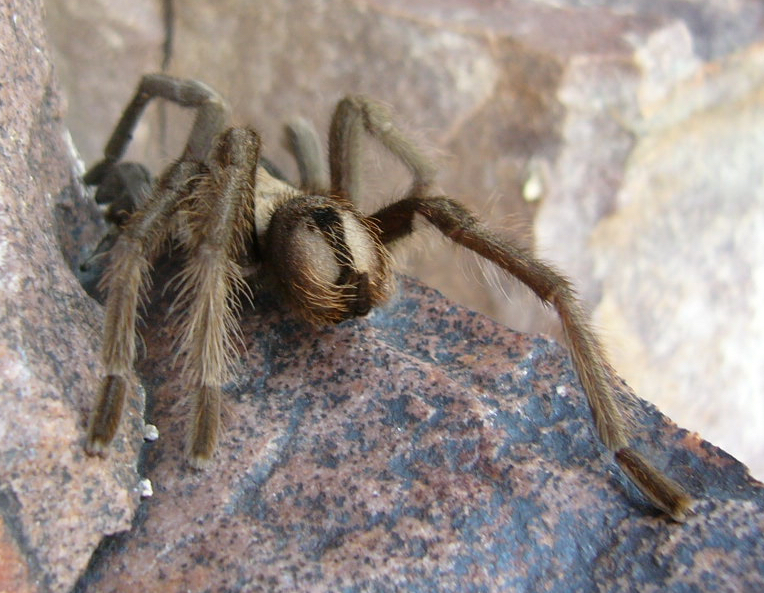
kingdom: Animalia
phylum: Arthropoda
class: Arachnida
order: Araneae
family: Theraphosidae
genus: Aphonopelma
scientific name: Aphonopelma iodius
